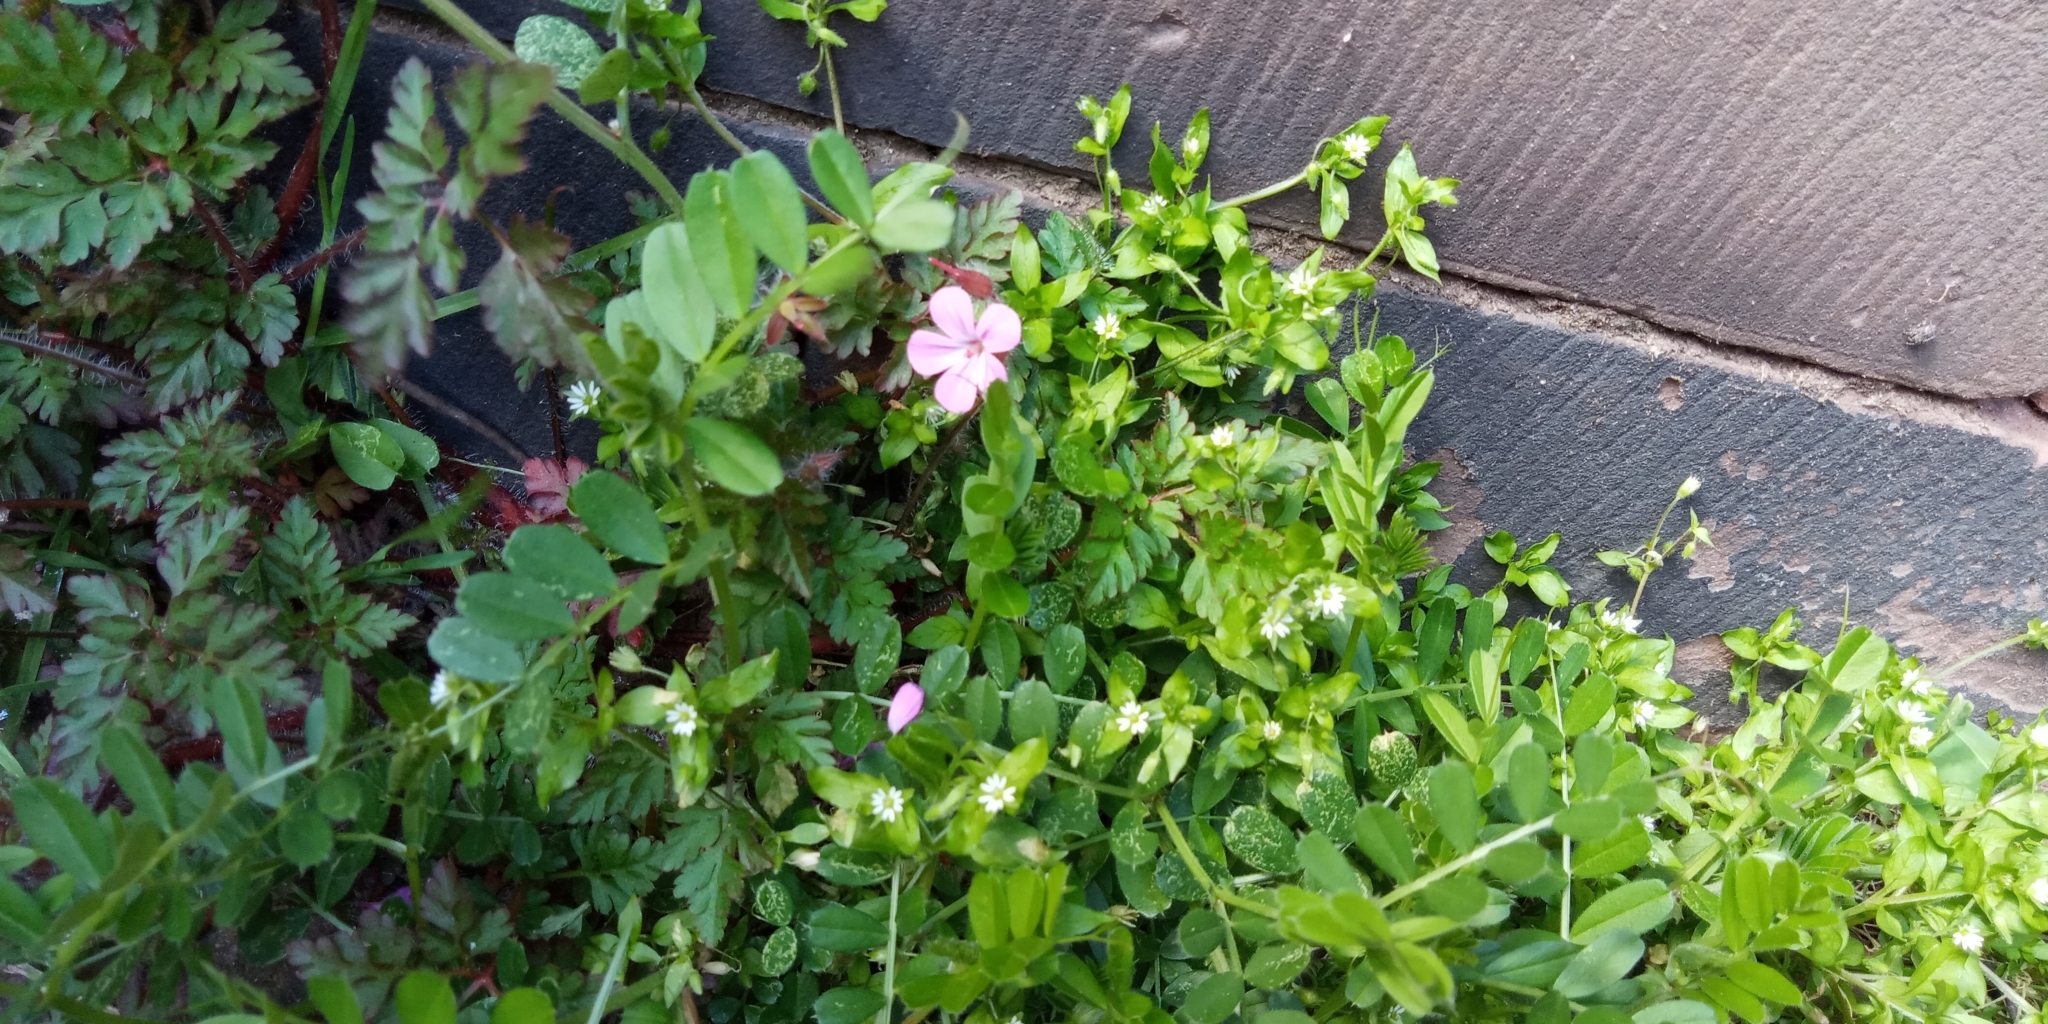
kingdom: Plantae
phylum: Tracheophyta
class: Magnoliopsida
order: Geraniales
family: Geraniaceae
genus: Geranium
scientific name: Geranium robertianum
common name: Herb-robert
